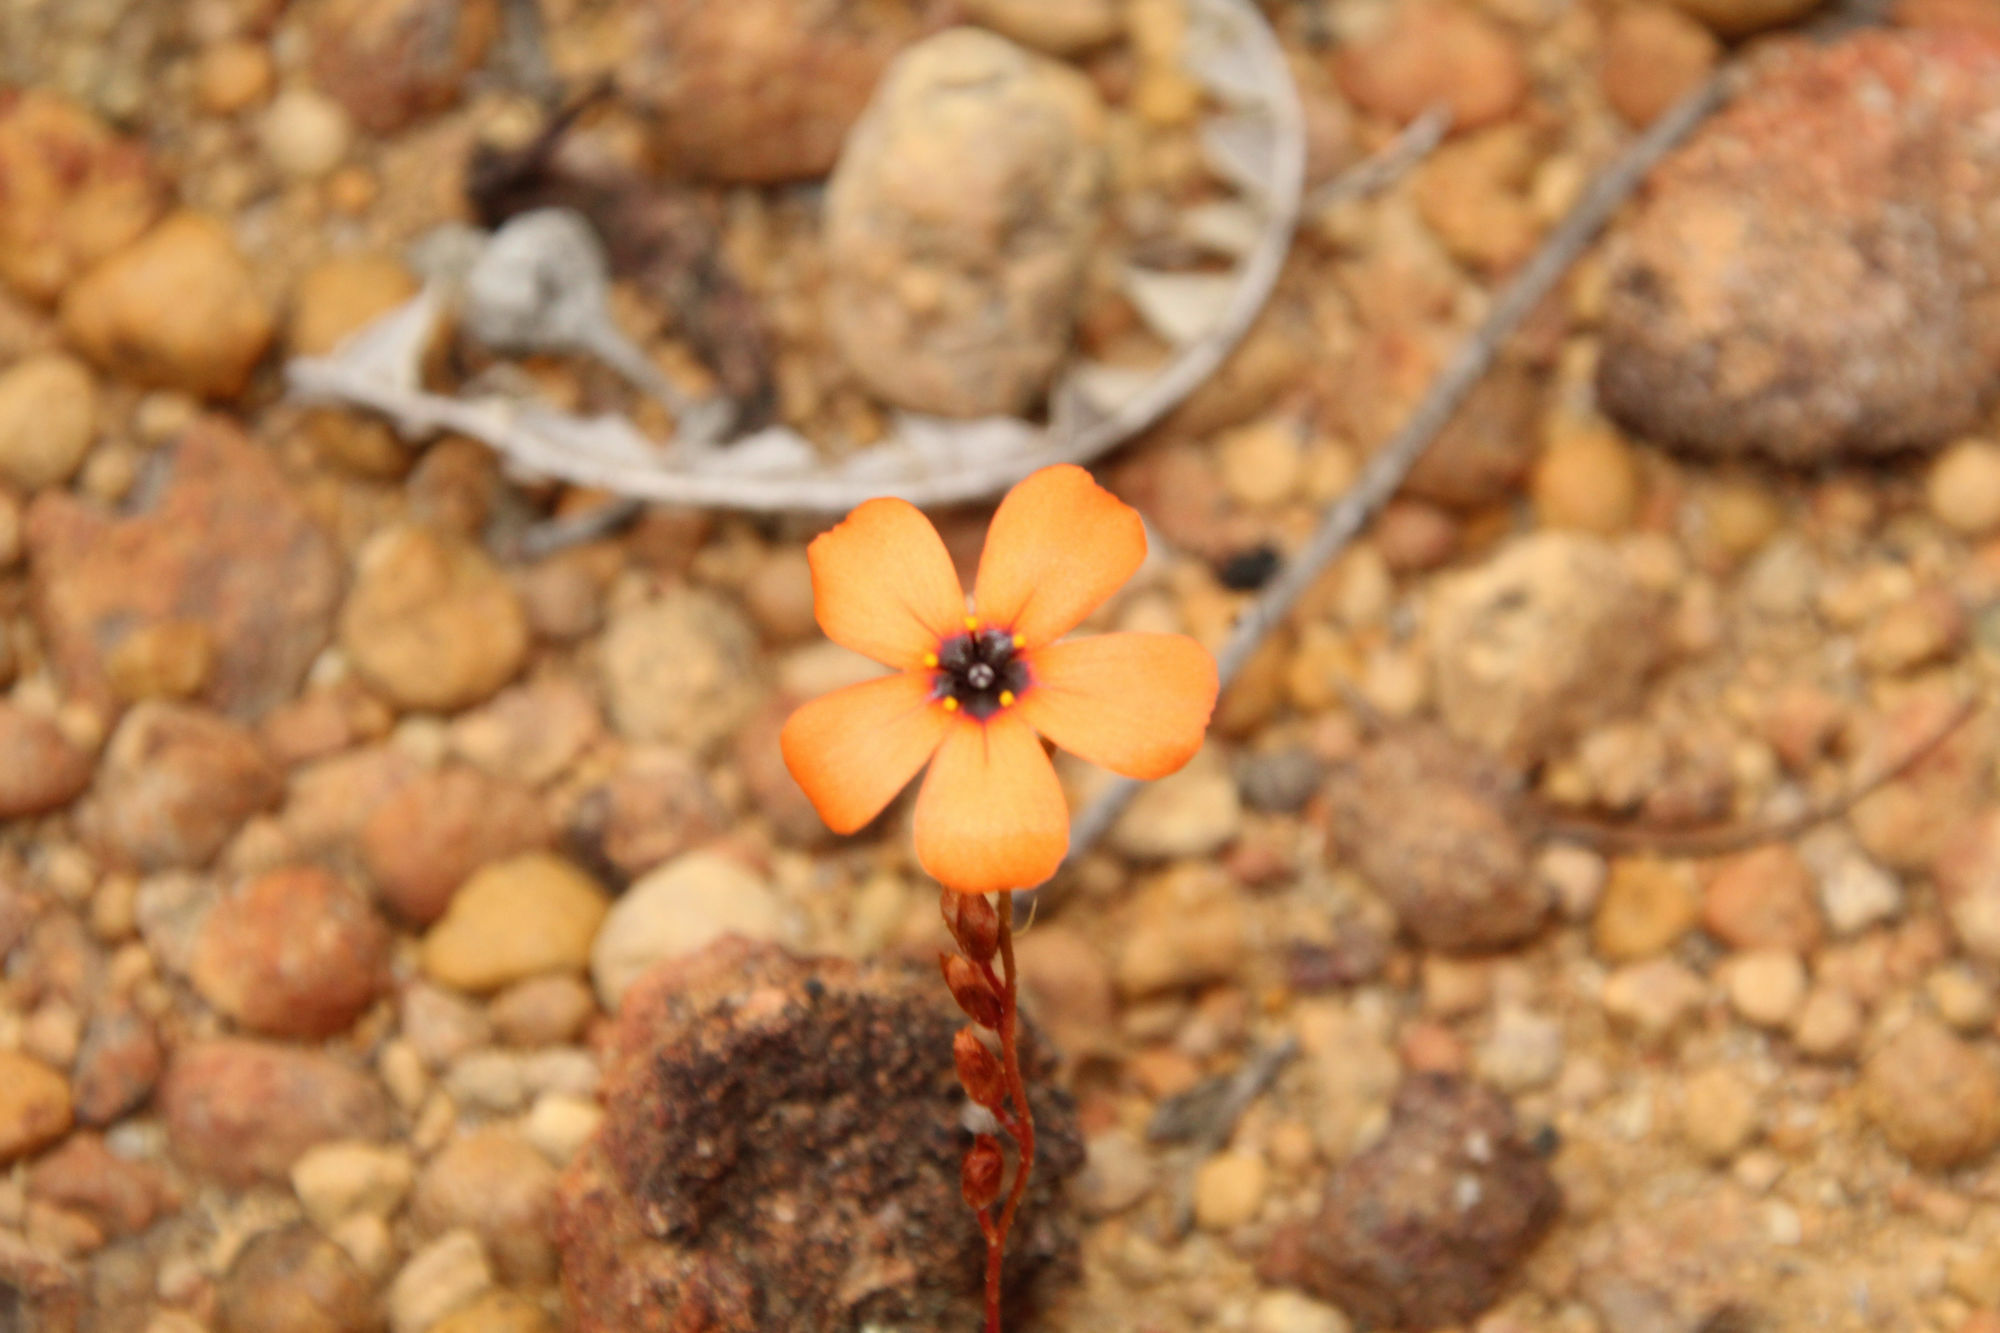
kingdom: Plantae
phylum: Tracheophyta
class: Magnoliopsida
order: Caryophyllales
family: Droseraceae
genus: Drosera
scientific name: Drosera hyperostigma
